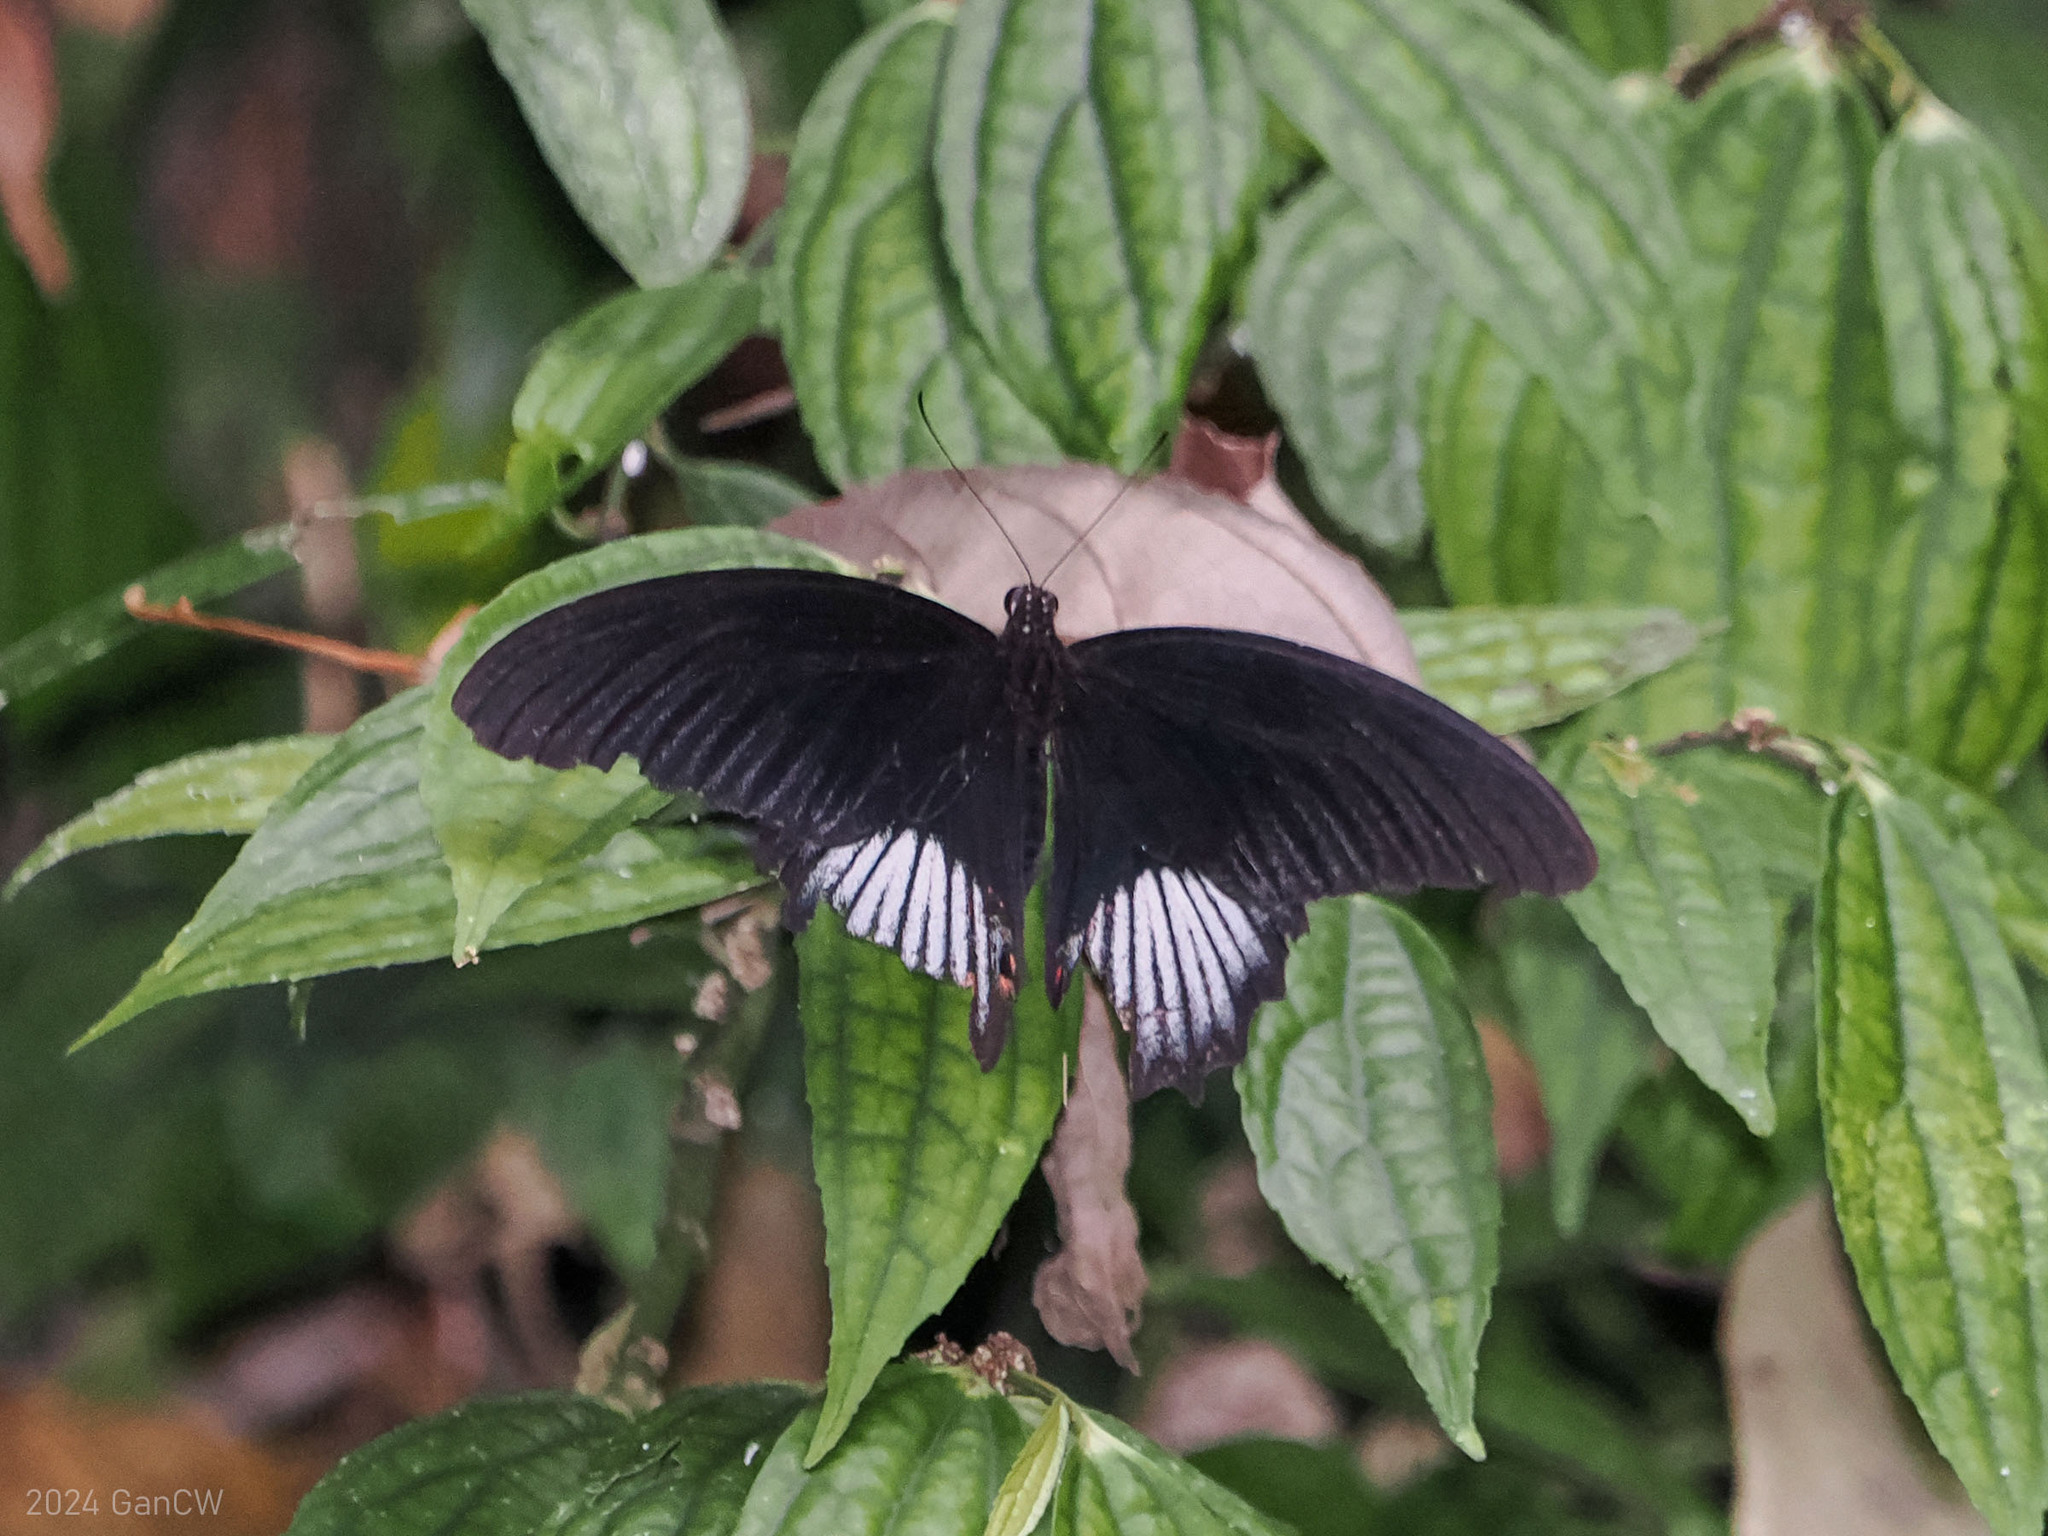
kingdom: Animalia
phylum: Arthropoda
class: Insecta
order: Lepidoptera
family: Papilionidae
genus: Papilio
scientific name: Papilio deiphobus
